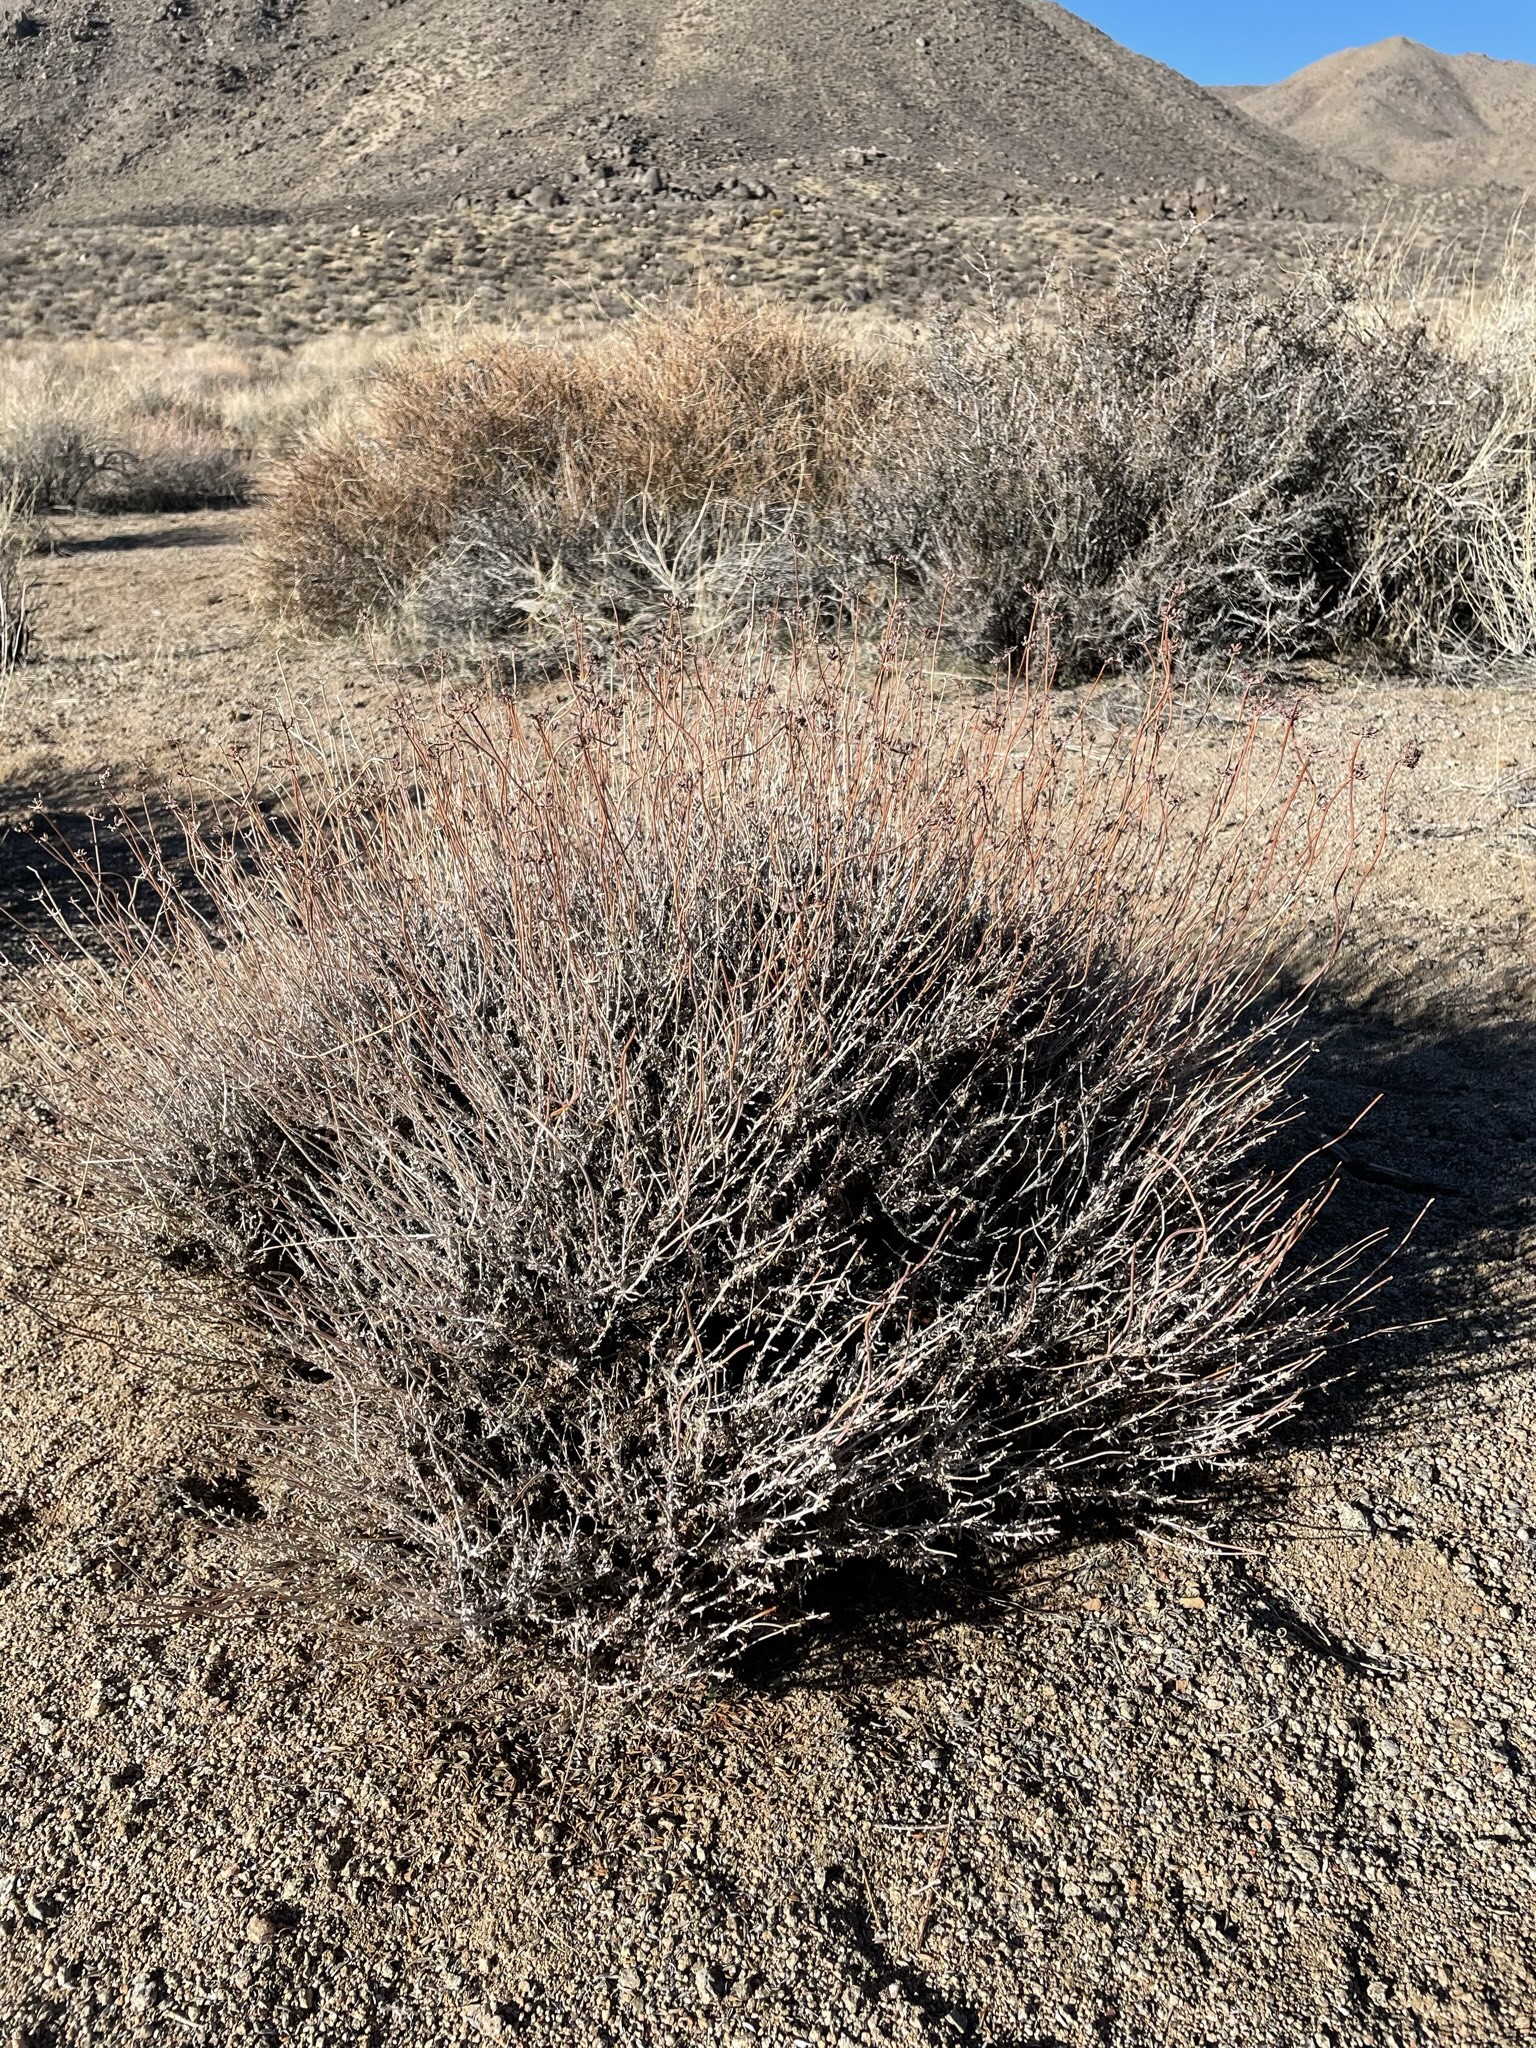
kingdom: Plantae
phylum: Tracheophyta
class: Magnoliopsida
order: Caryophyllales
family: Polygonaceae
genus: Eriogonum
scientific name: Eriogonum fasciculatum
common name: California wild buckwheat
